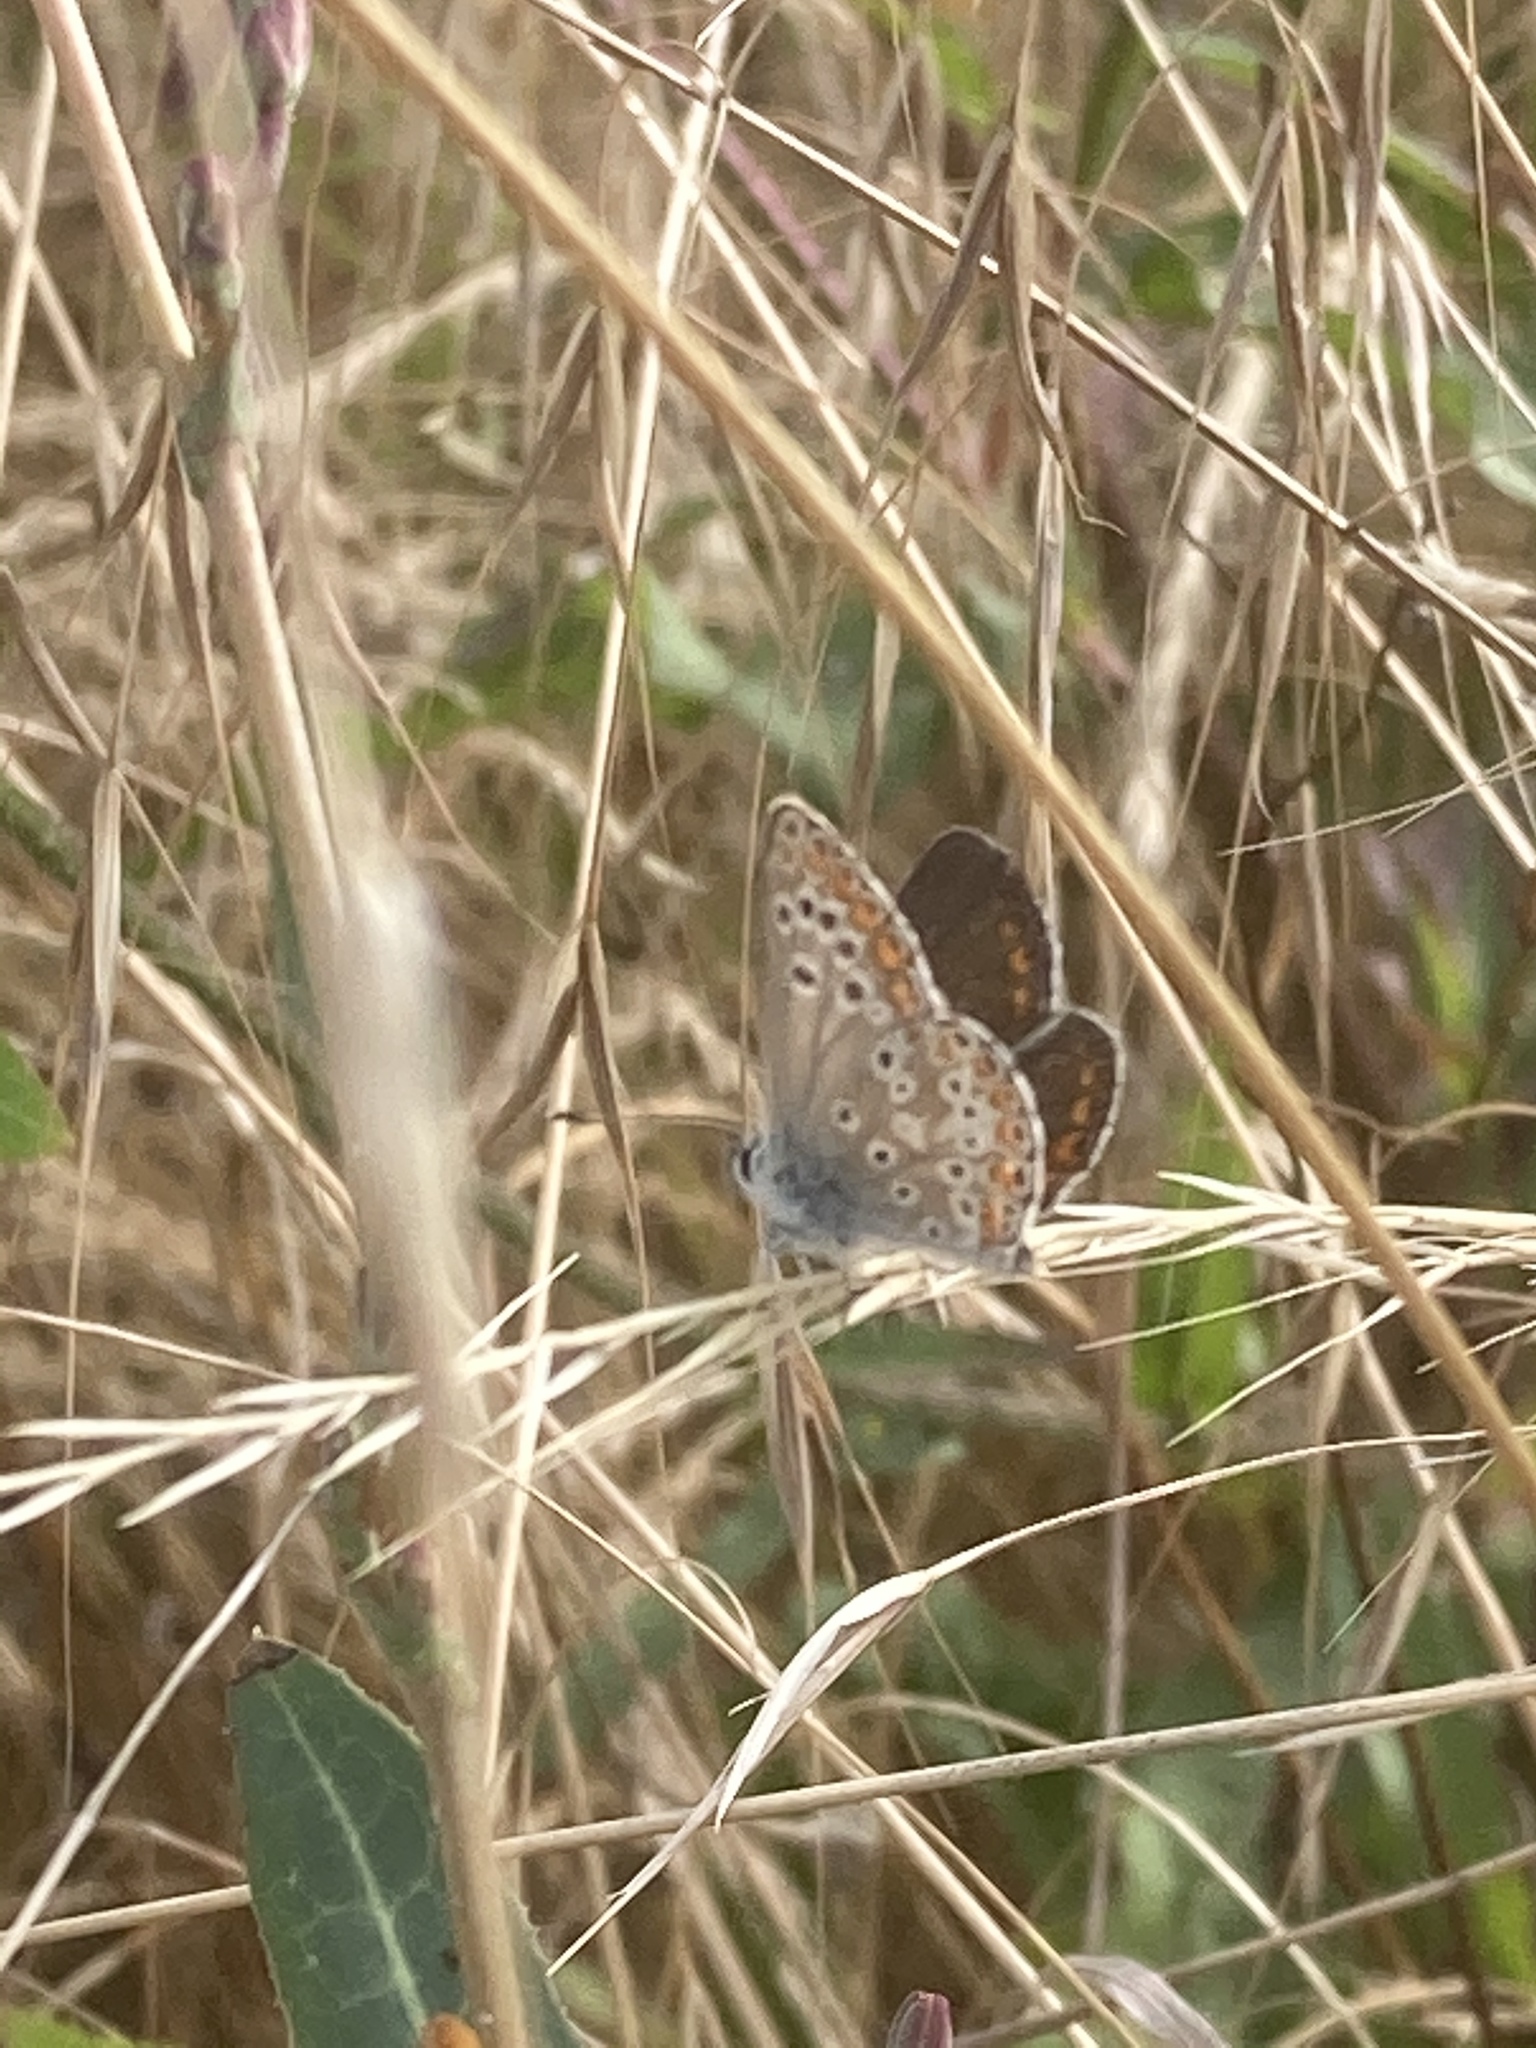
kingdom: Plantae
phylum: Tracheophyta
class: Liliopsida
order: Poales
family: Poaceae
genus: Festuca
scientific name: Festuca myuros
